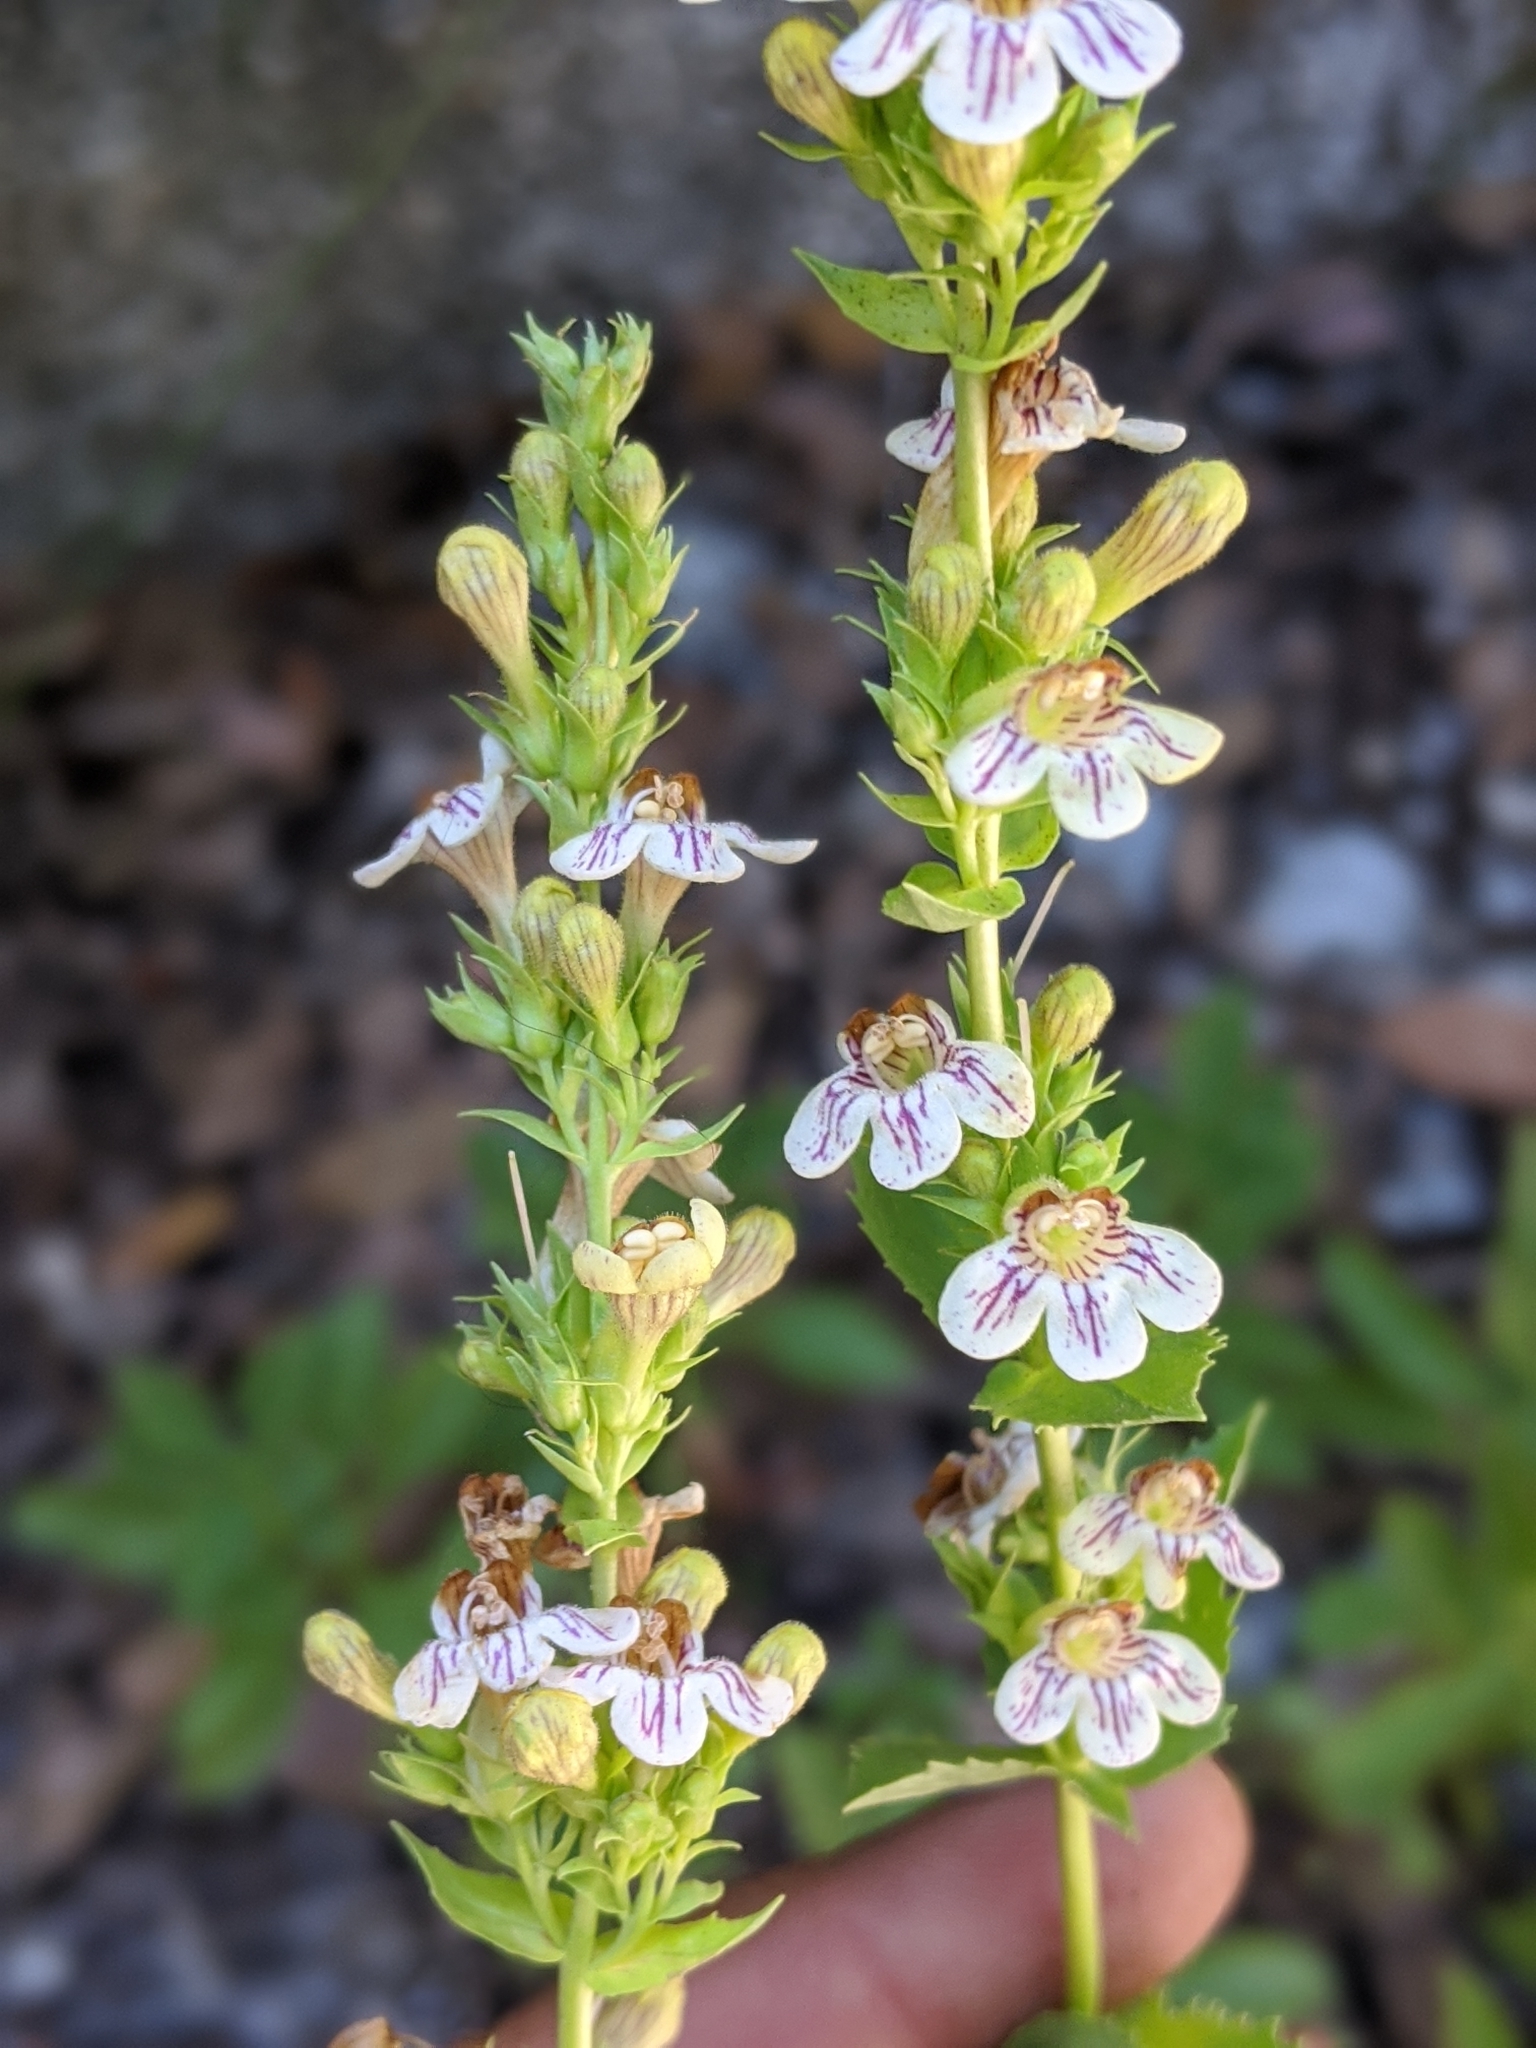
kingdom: Plantae
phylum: Tracheophyta
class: Magnoliopsida
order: Lamiales
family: Plantaginaceae
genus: Penstemon
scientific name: Penstemon deustus
